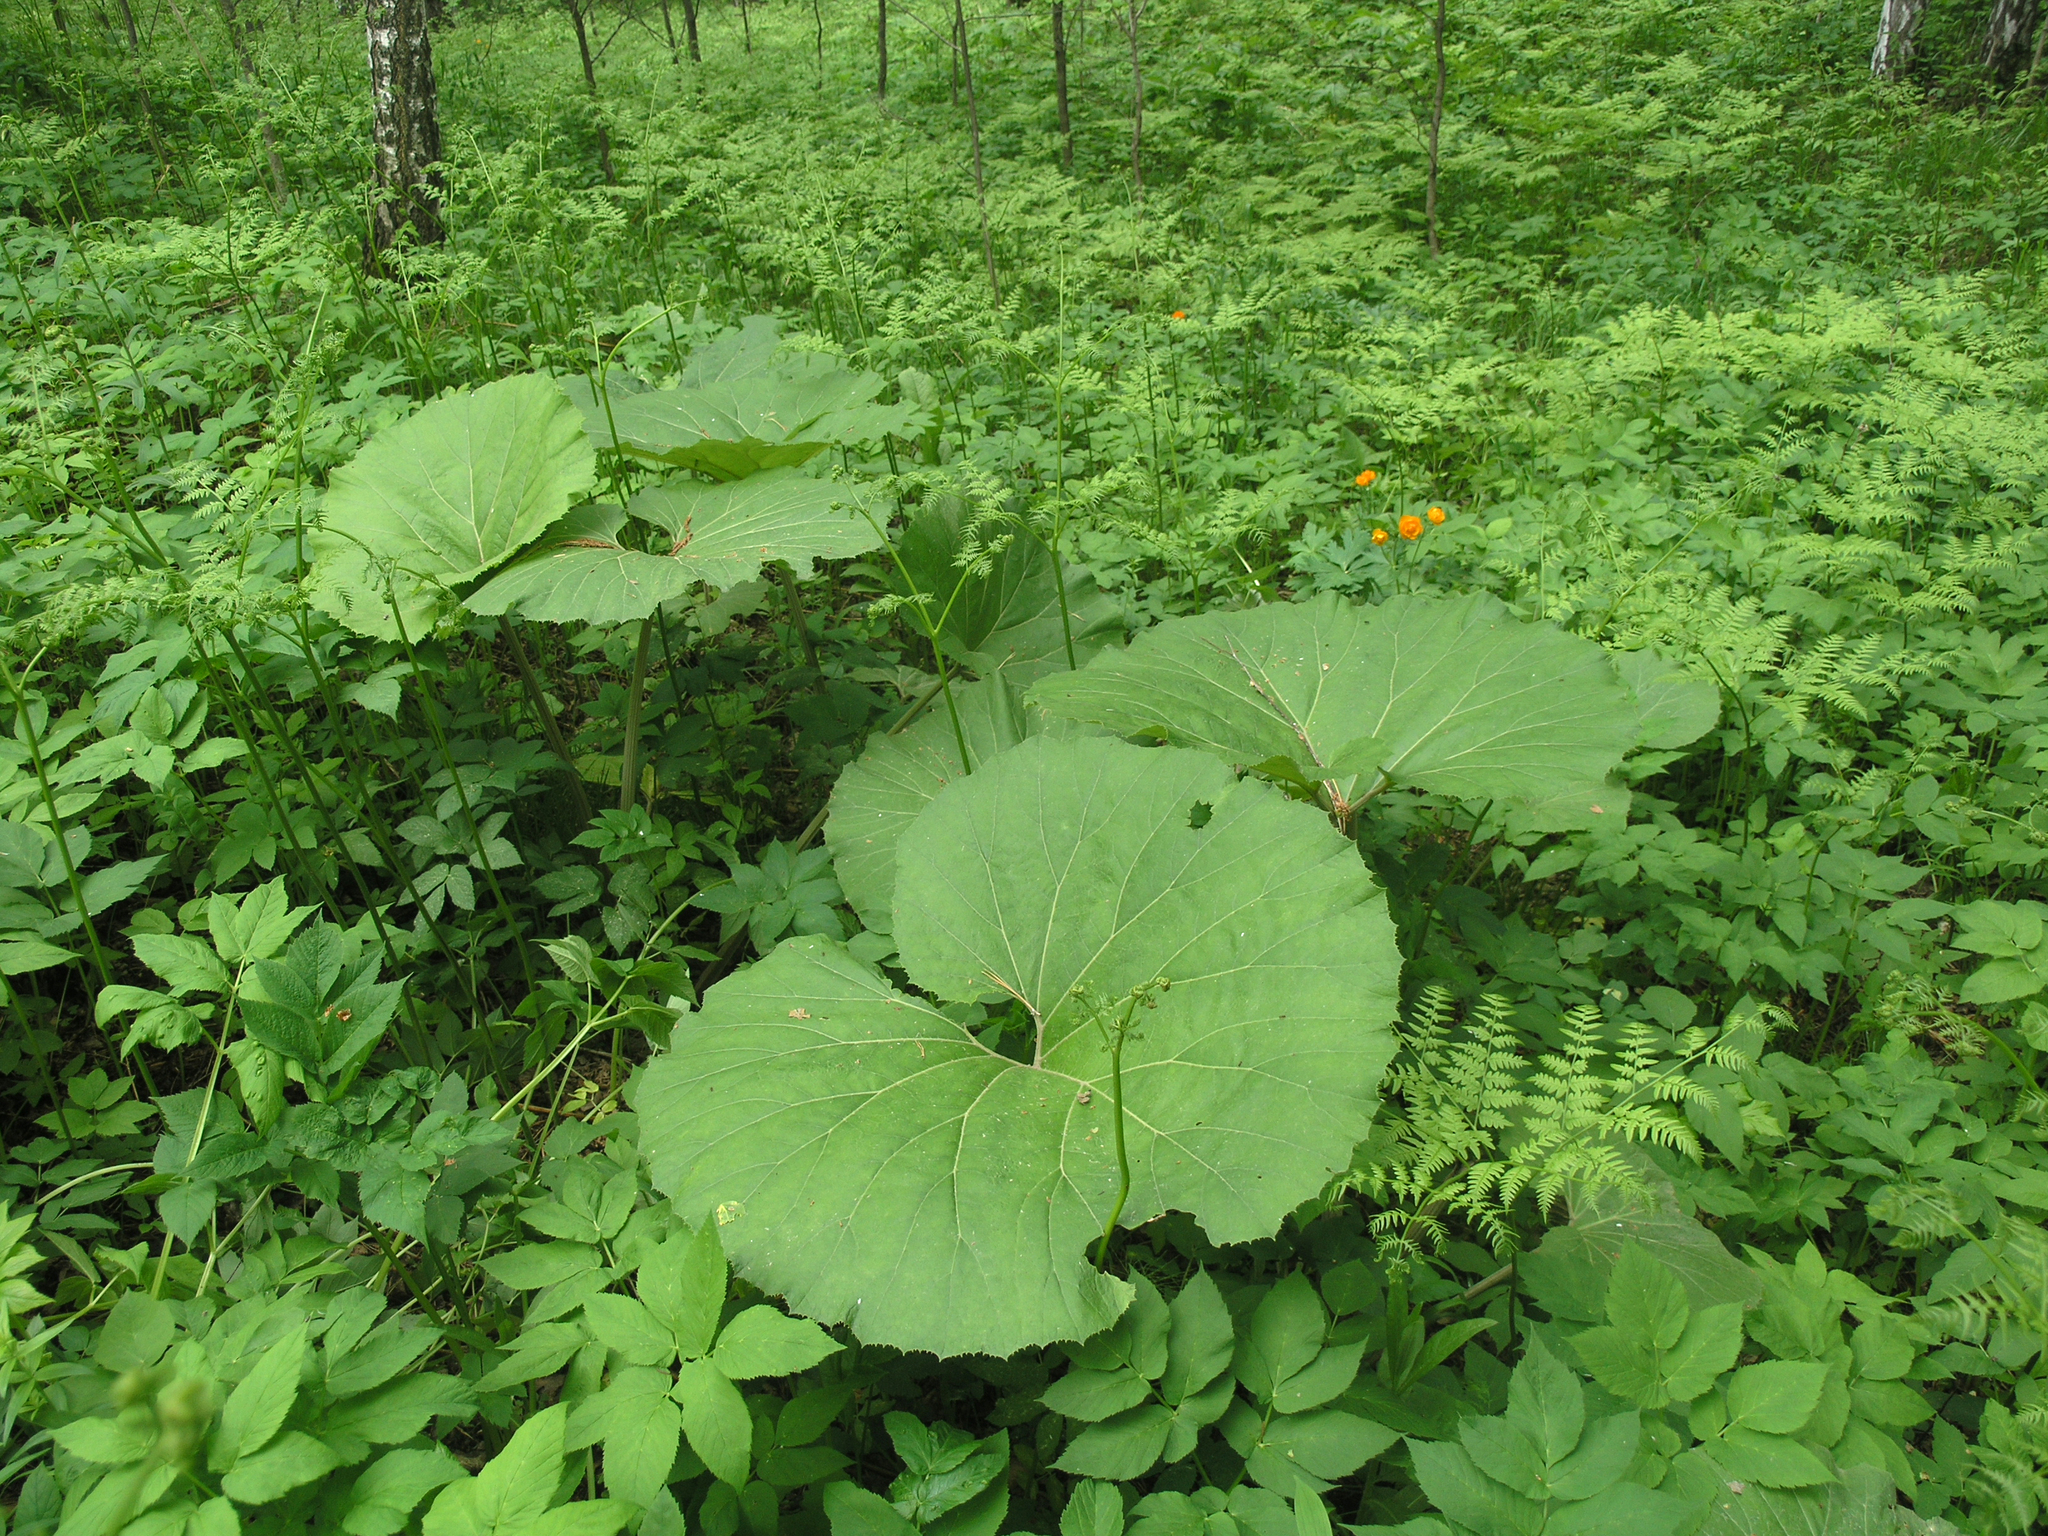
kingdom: Plantae
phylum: Tracheophyta
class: Magnoliopsida
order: Asterales
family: Asteraceae
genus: Petasites
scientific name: Petasites japonicus
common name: Giant butterbur
